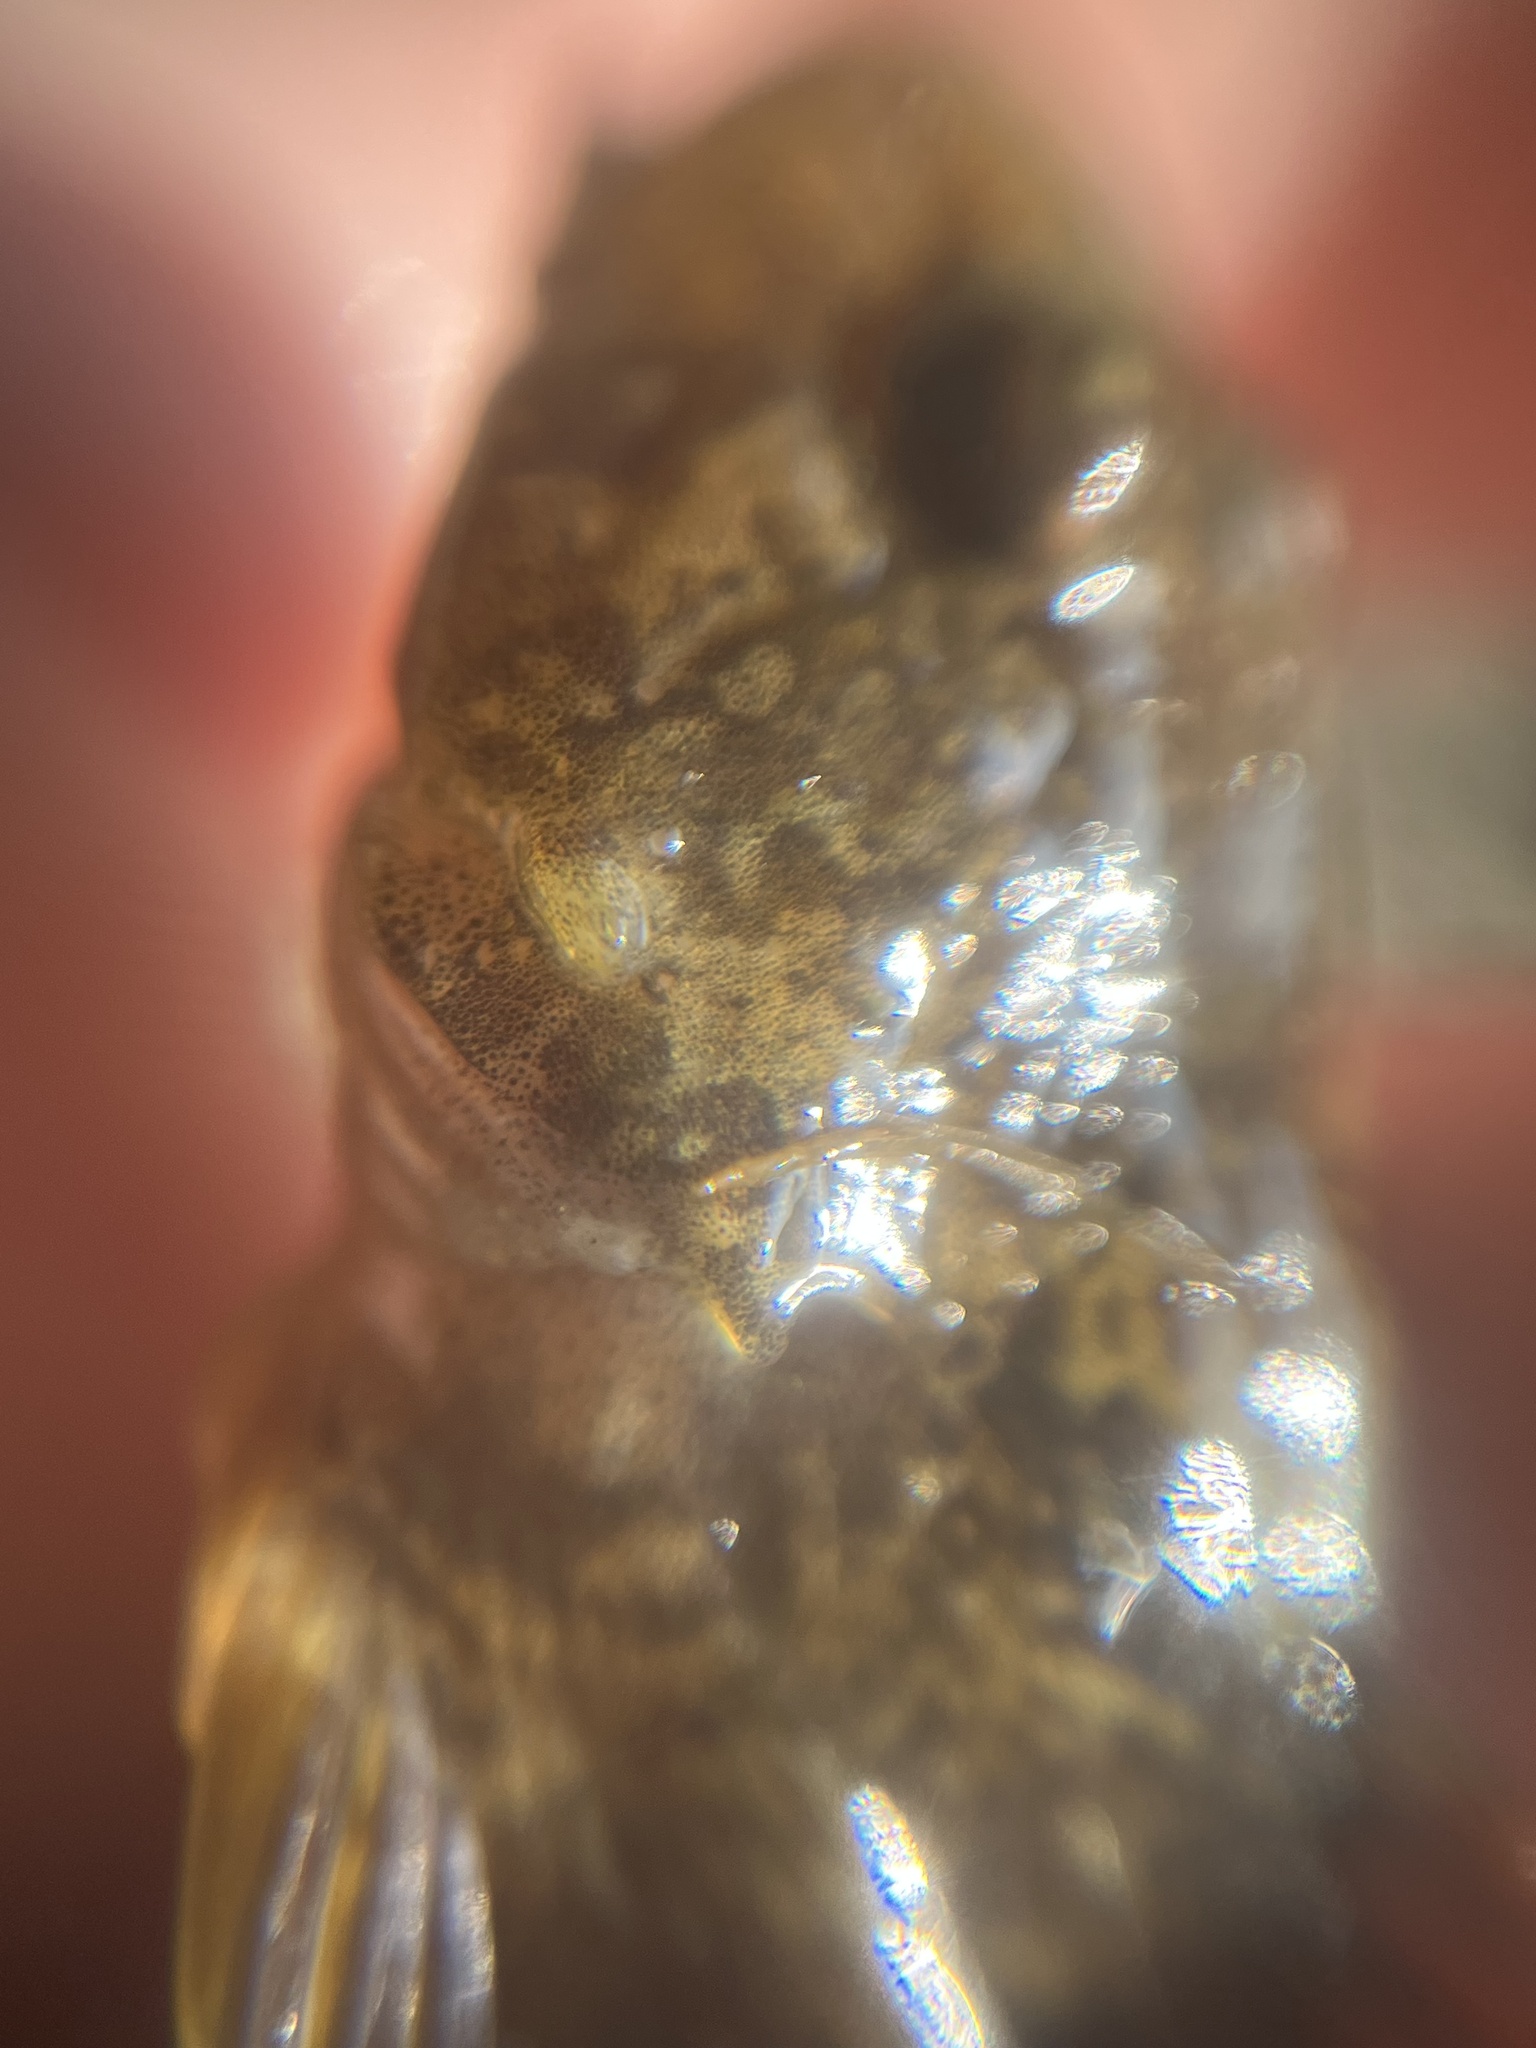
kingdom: Animalia
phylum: Chordata
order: Scorpaeniformes
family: Cottidae
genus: Cottus
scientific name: Cottus perifretum
